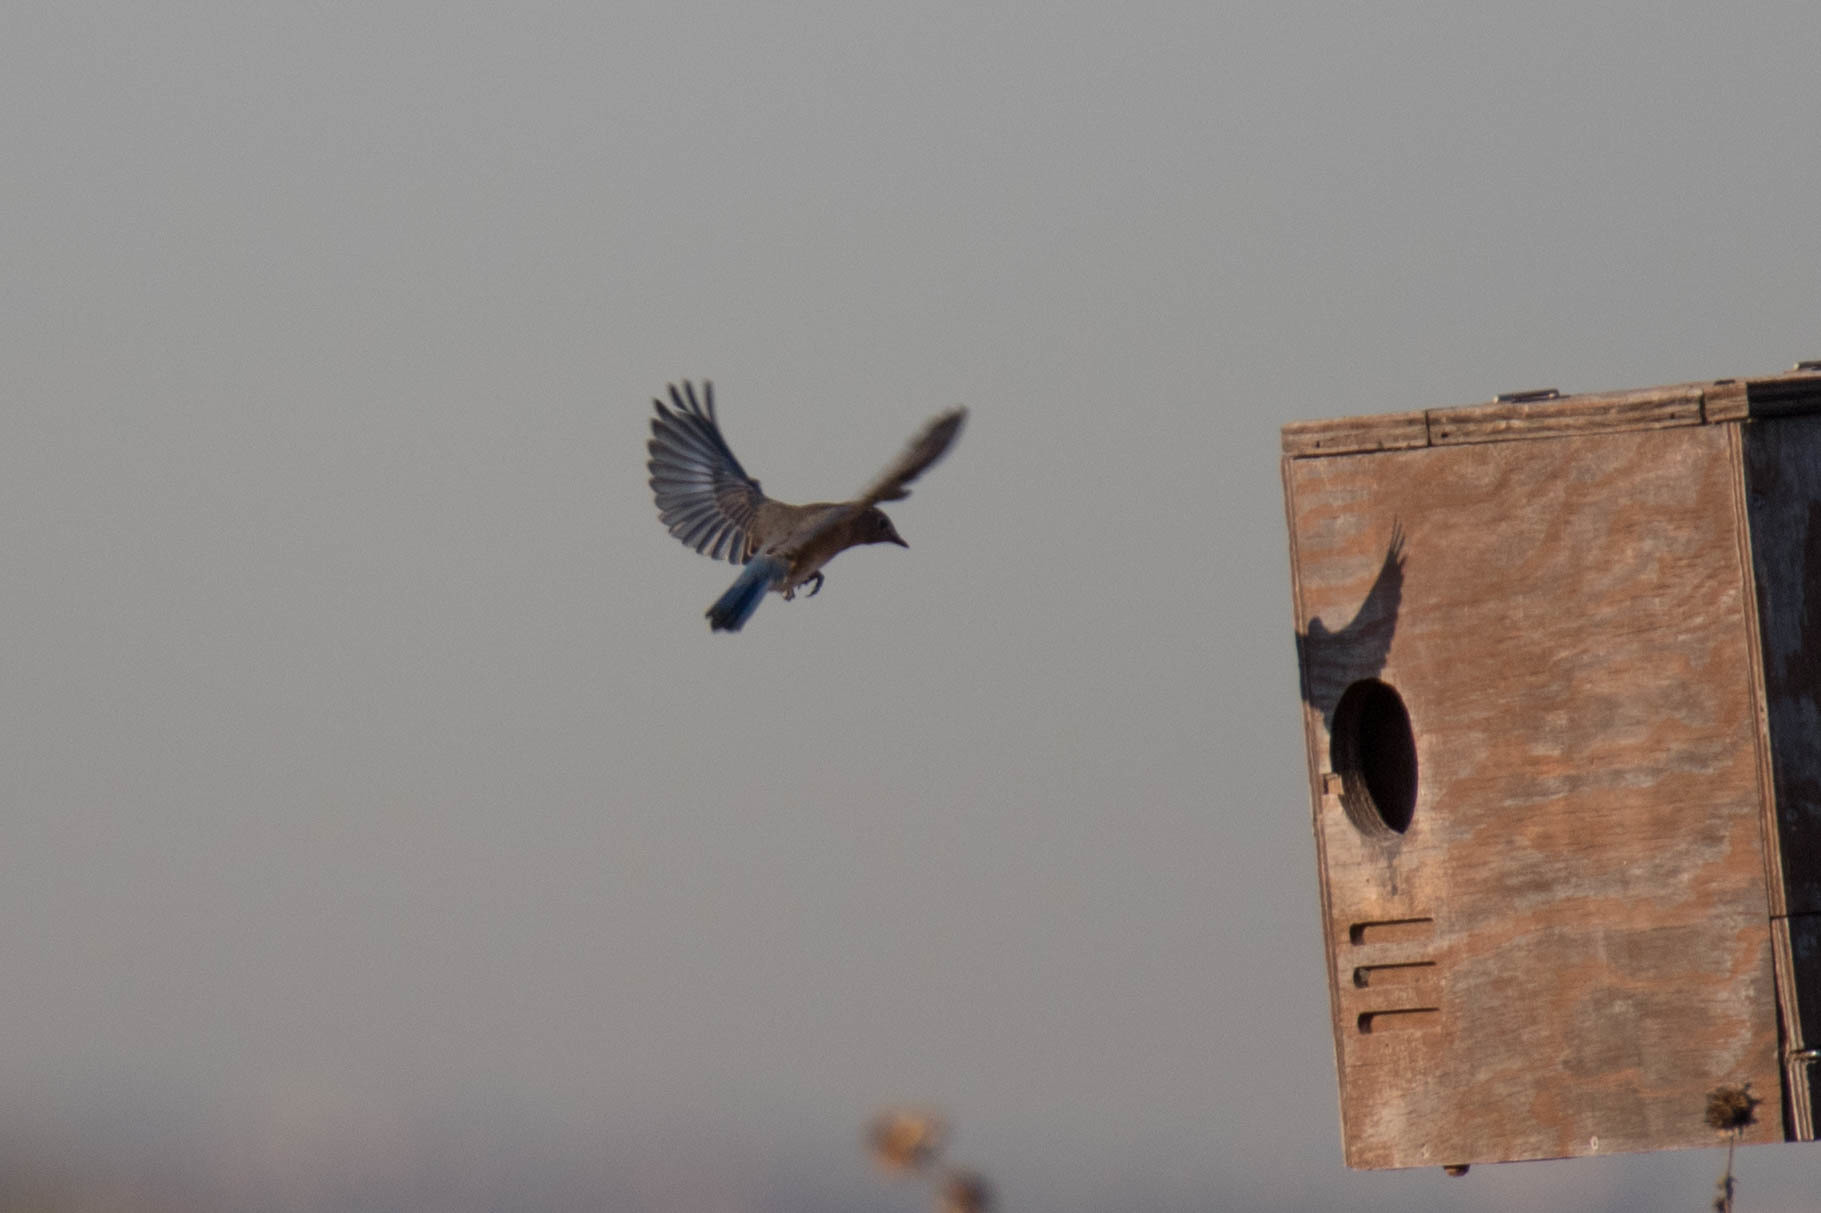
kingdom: Animalia
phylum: Chordata
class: Aves
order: Passeriformes
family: Turdidae
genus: Sialia
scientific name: Sialia sialis
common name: Eastern bluebird
